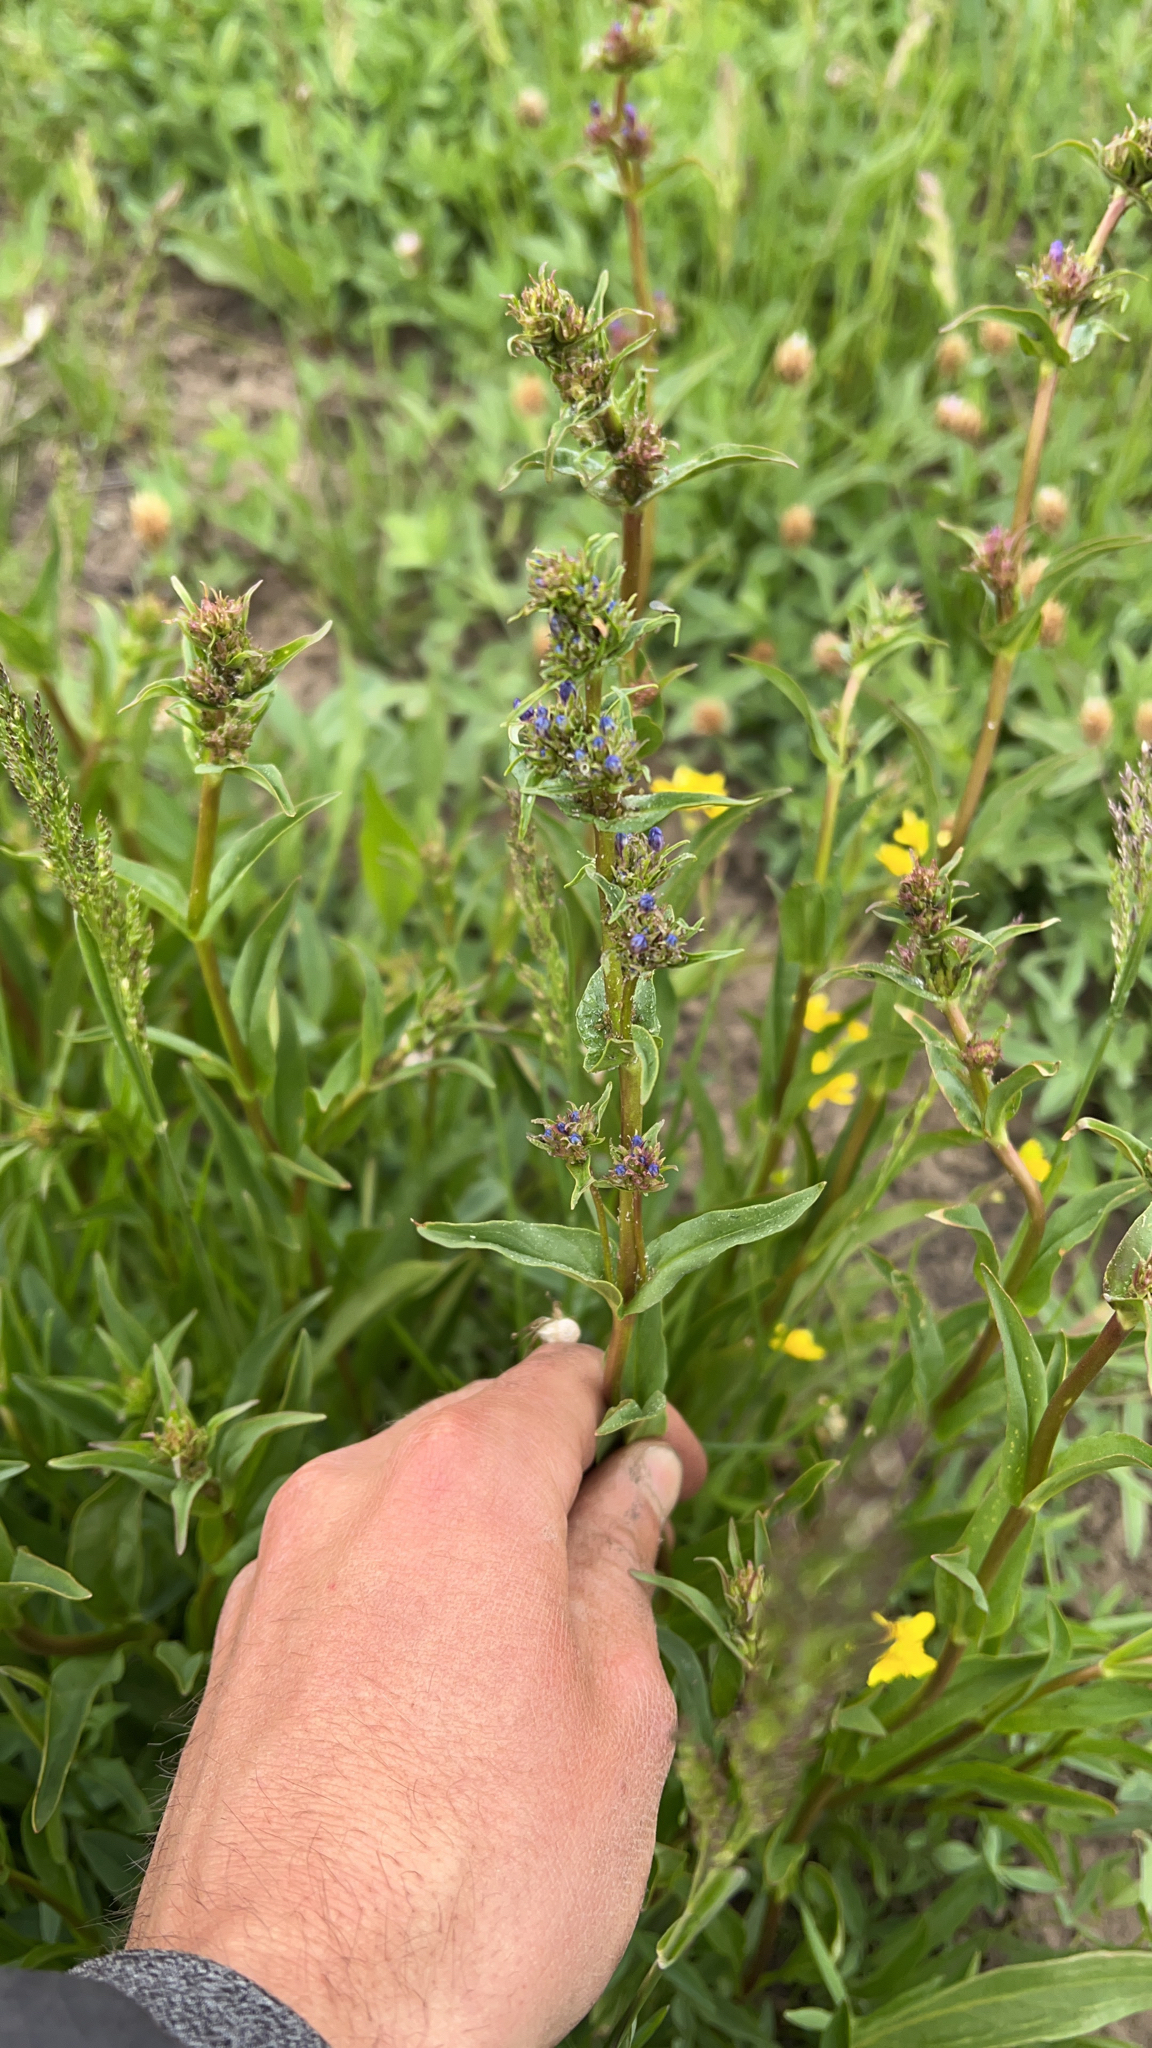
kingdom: Plantae
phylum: Tracheophyta
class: Magnoliopsida
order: Lamiales
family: Plantaginaceae
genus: Penstemon
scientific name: Penstemon rydbergii
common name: Rydberg's beardtongue
